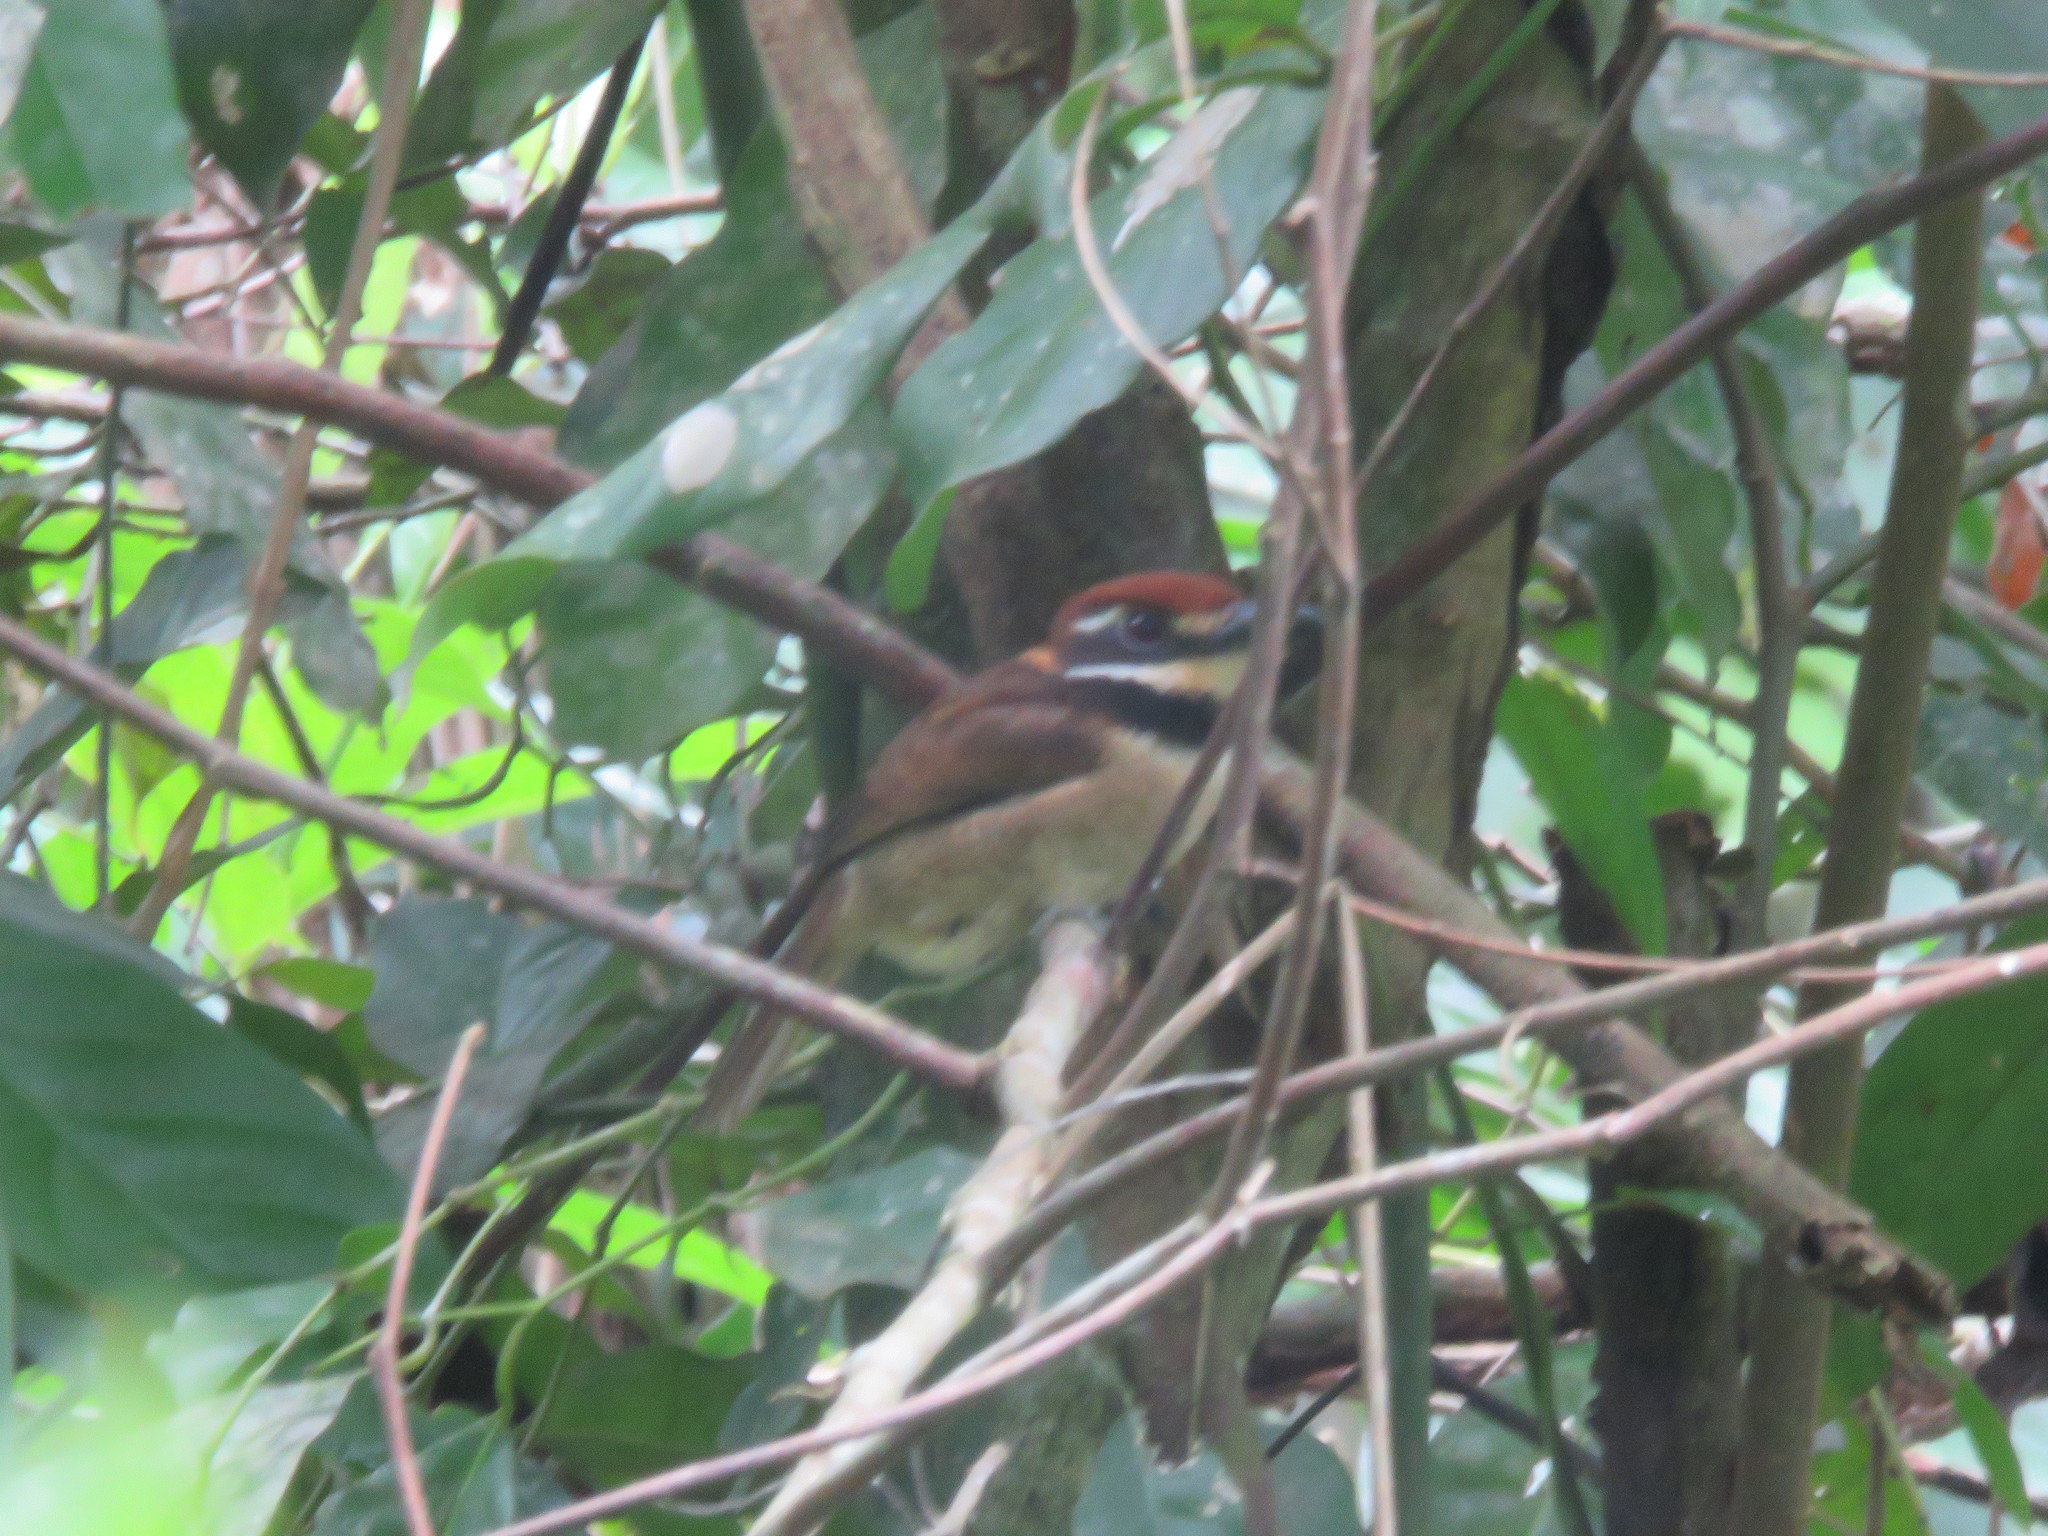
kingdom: Animalia
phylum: Chordata
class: Aves
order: Piciformes
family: Bucconidae
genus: Bucco
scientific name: Bucco macrodactylus
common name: Chestnut-capped puffbird
